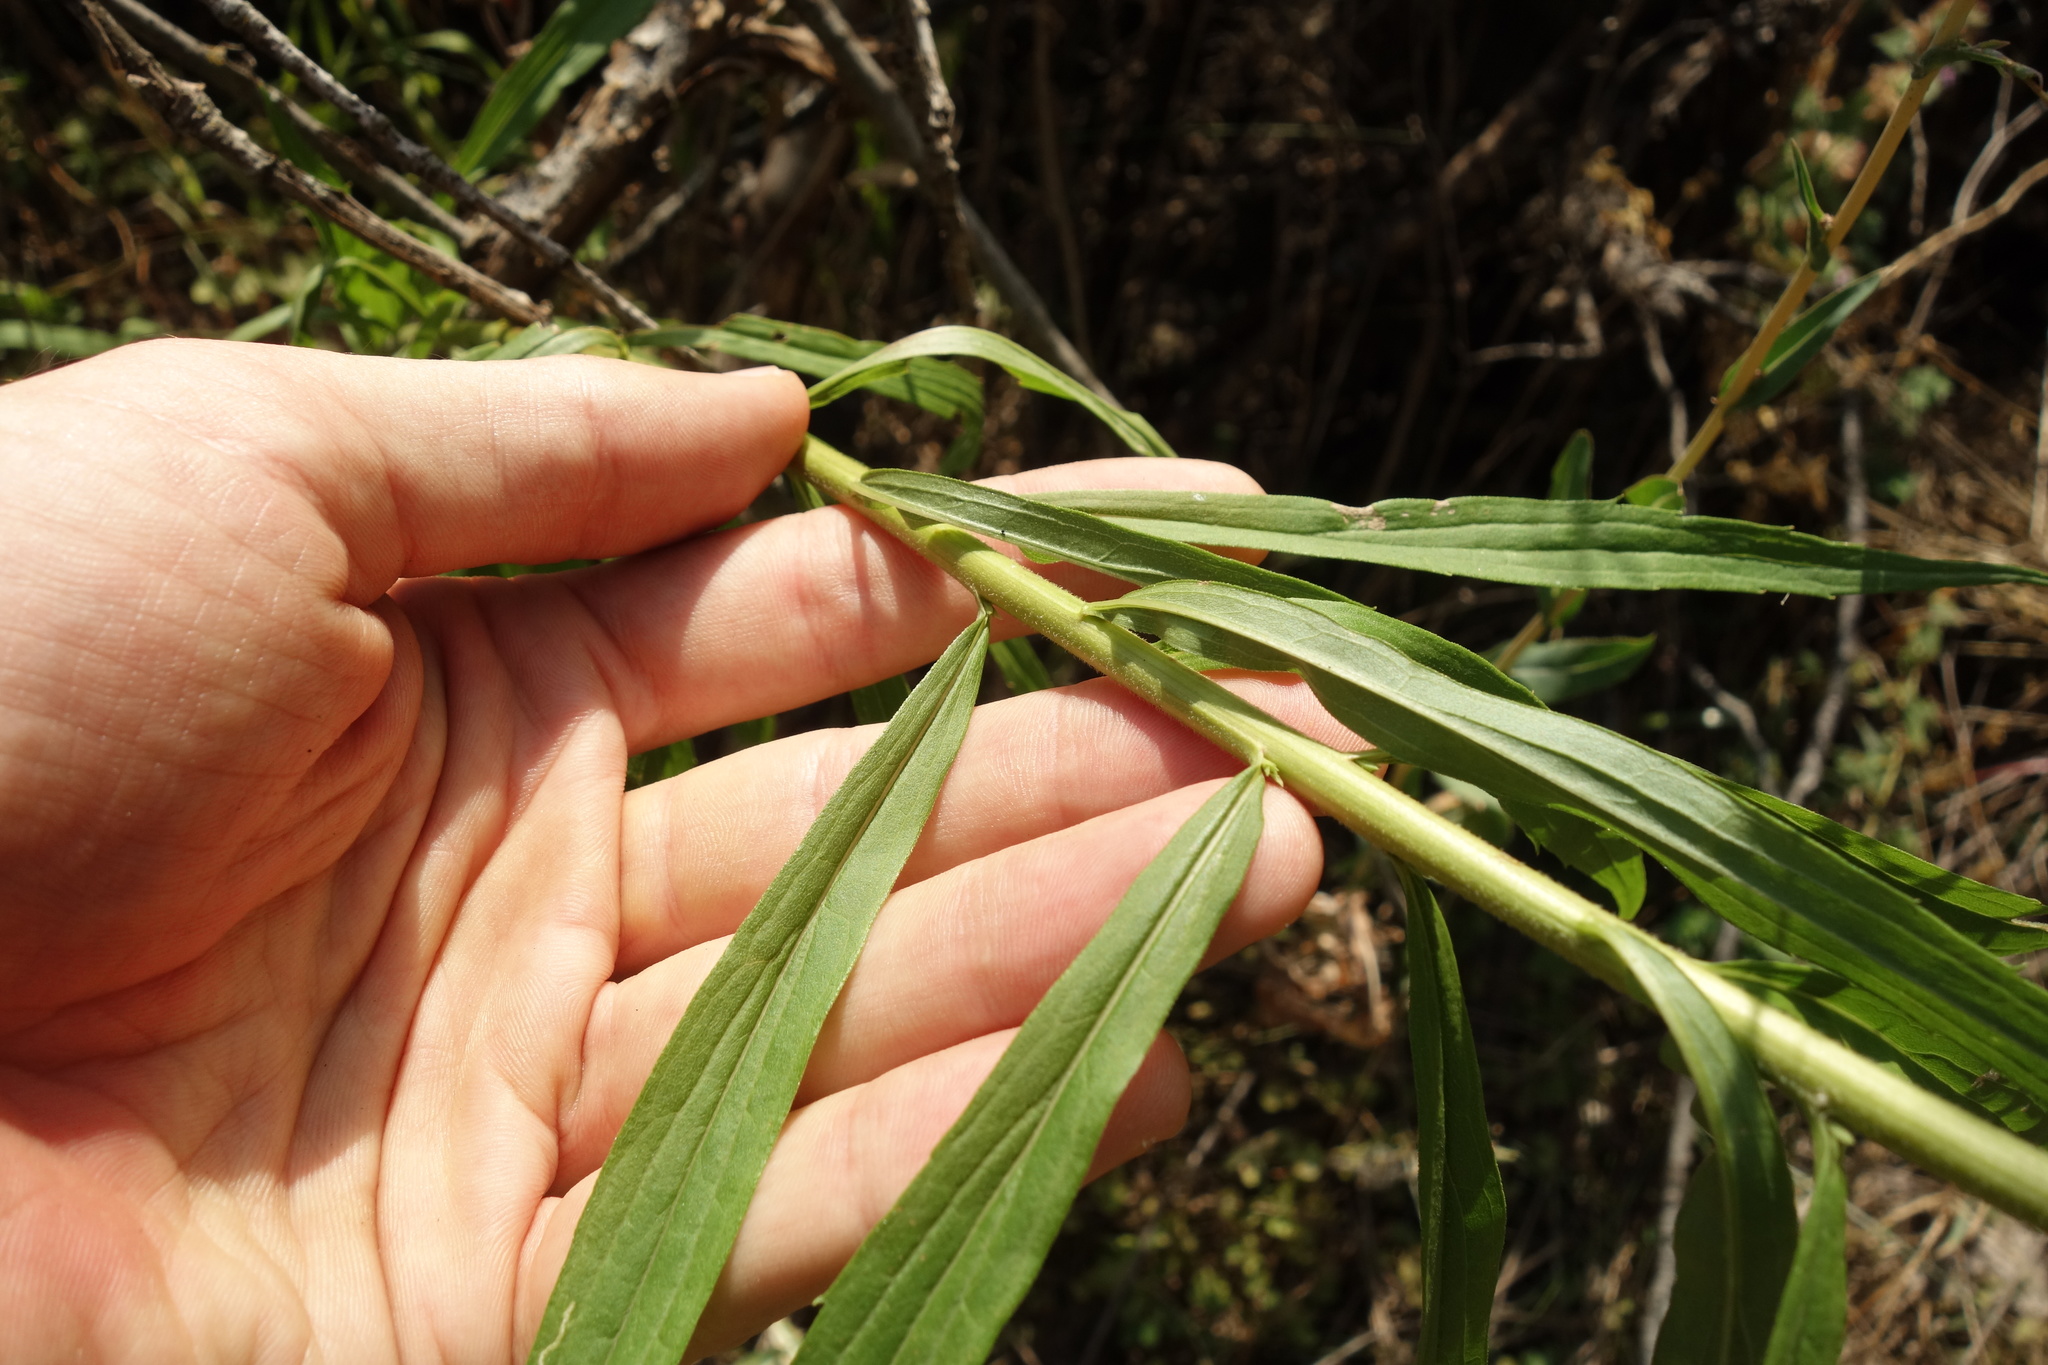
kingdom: Plantae
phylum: Tracheophyta
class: Magnoliopsida
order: Asterales
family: Asteraceae
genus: Solidago
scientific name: Solidago canadensis
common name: Canada goldenrod
